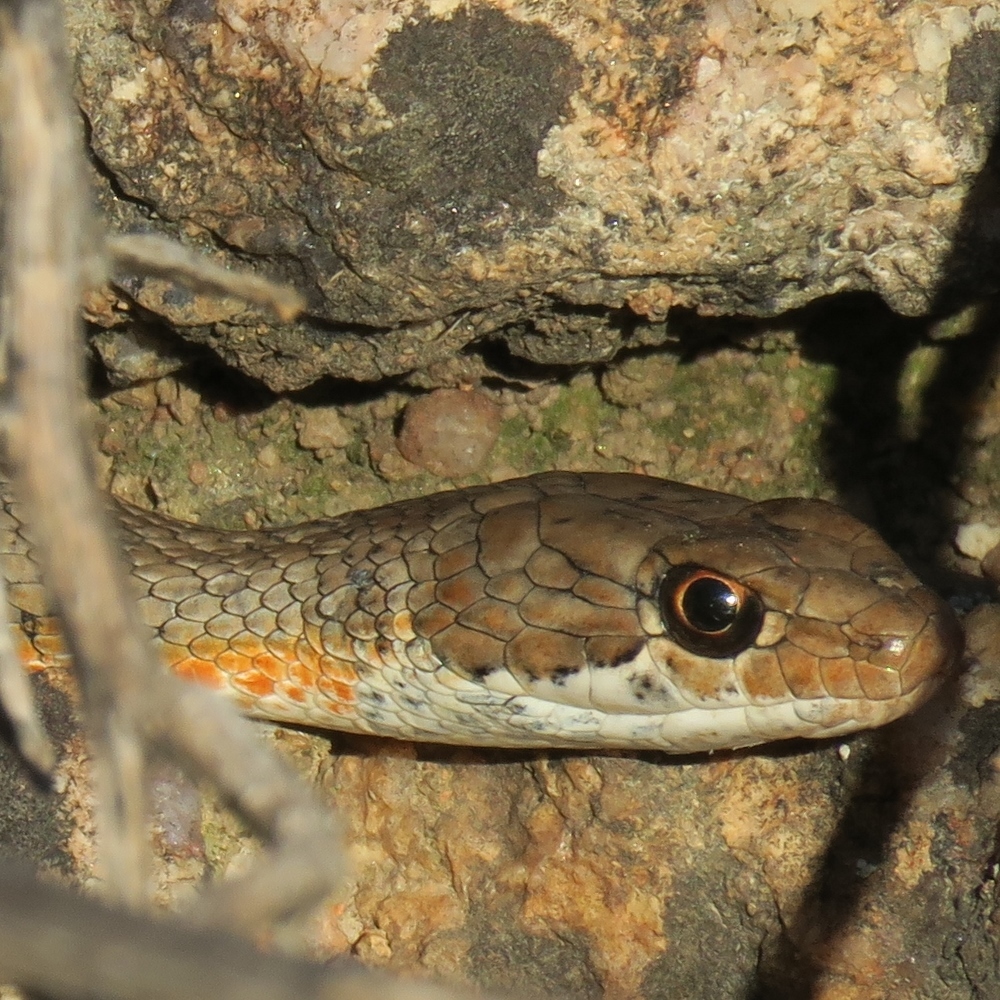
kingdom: Animalia
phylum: Chordata
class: Squamata
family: Psammophiidae
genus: Psammophis
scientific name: Psammophis notostictus
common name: Karoo sand snake
